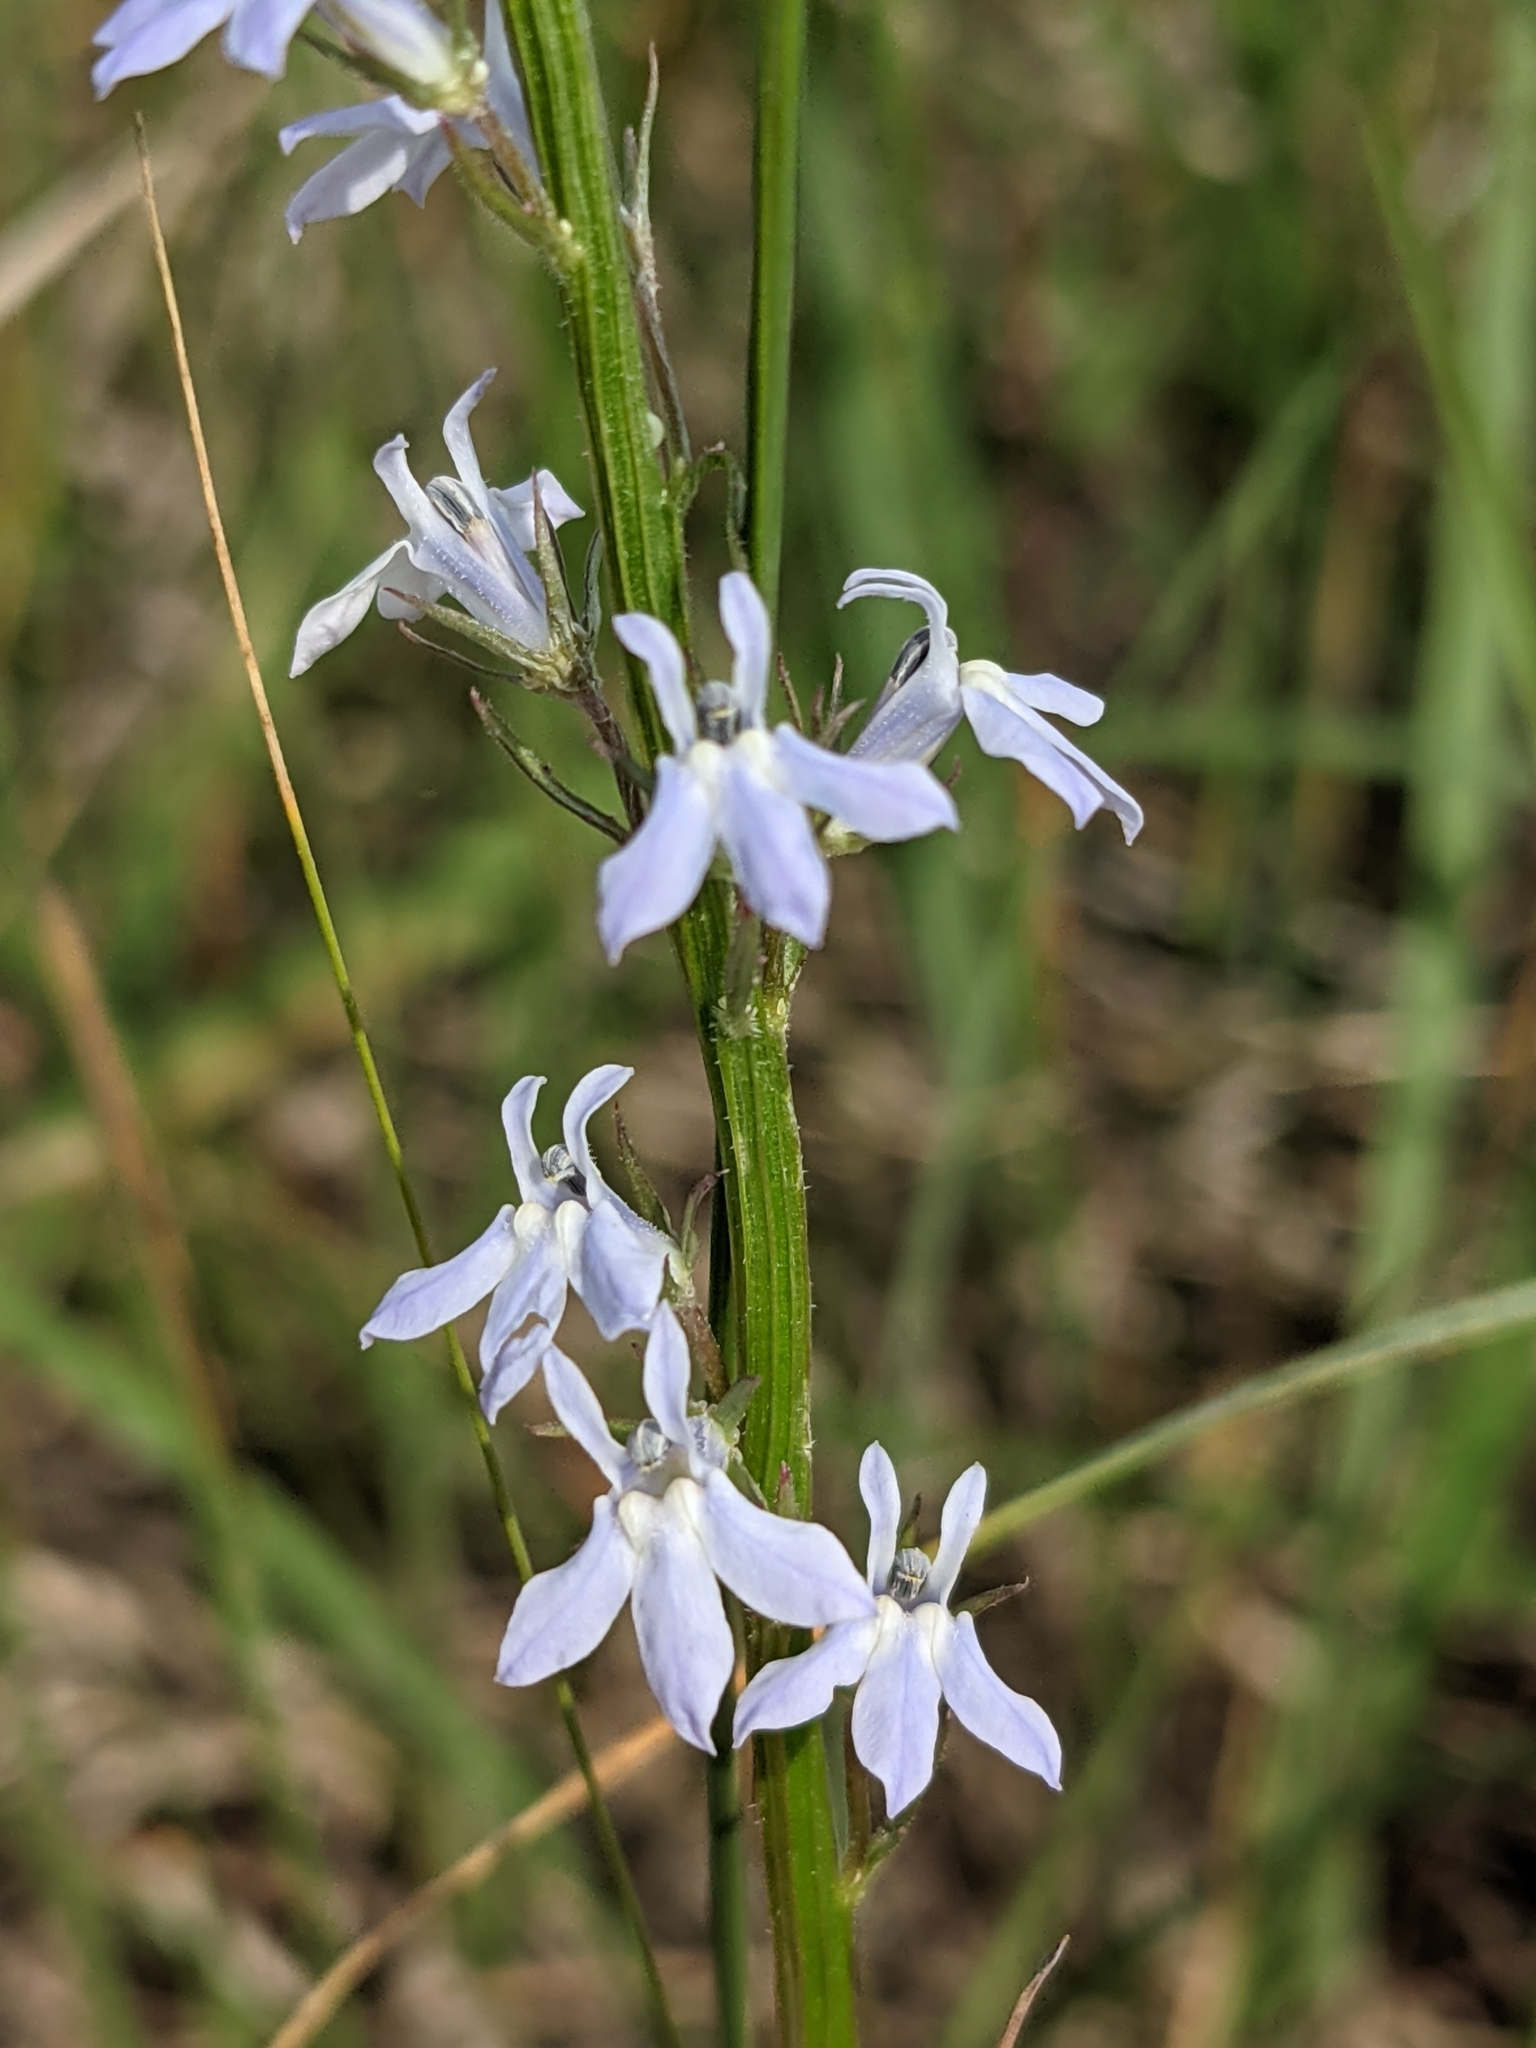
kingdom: Plantae
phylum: Tracheophyta
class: Magnoliopsida
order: Asterales
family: Campanulaceae
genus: Lobelia
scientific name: Lobelia spicata
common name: Pale-spike lobelia
